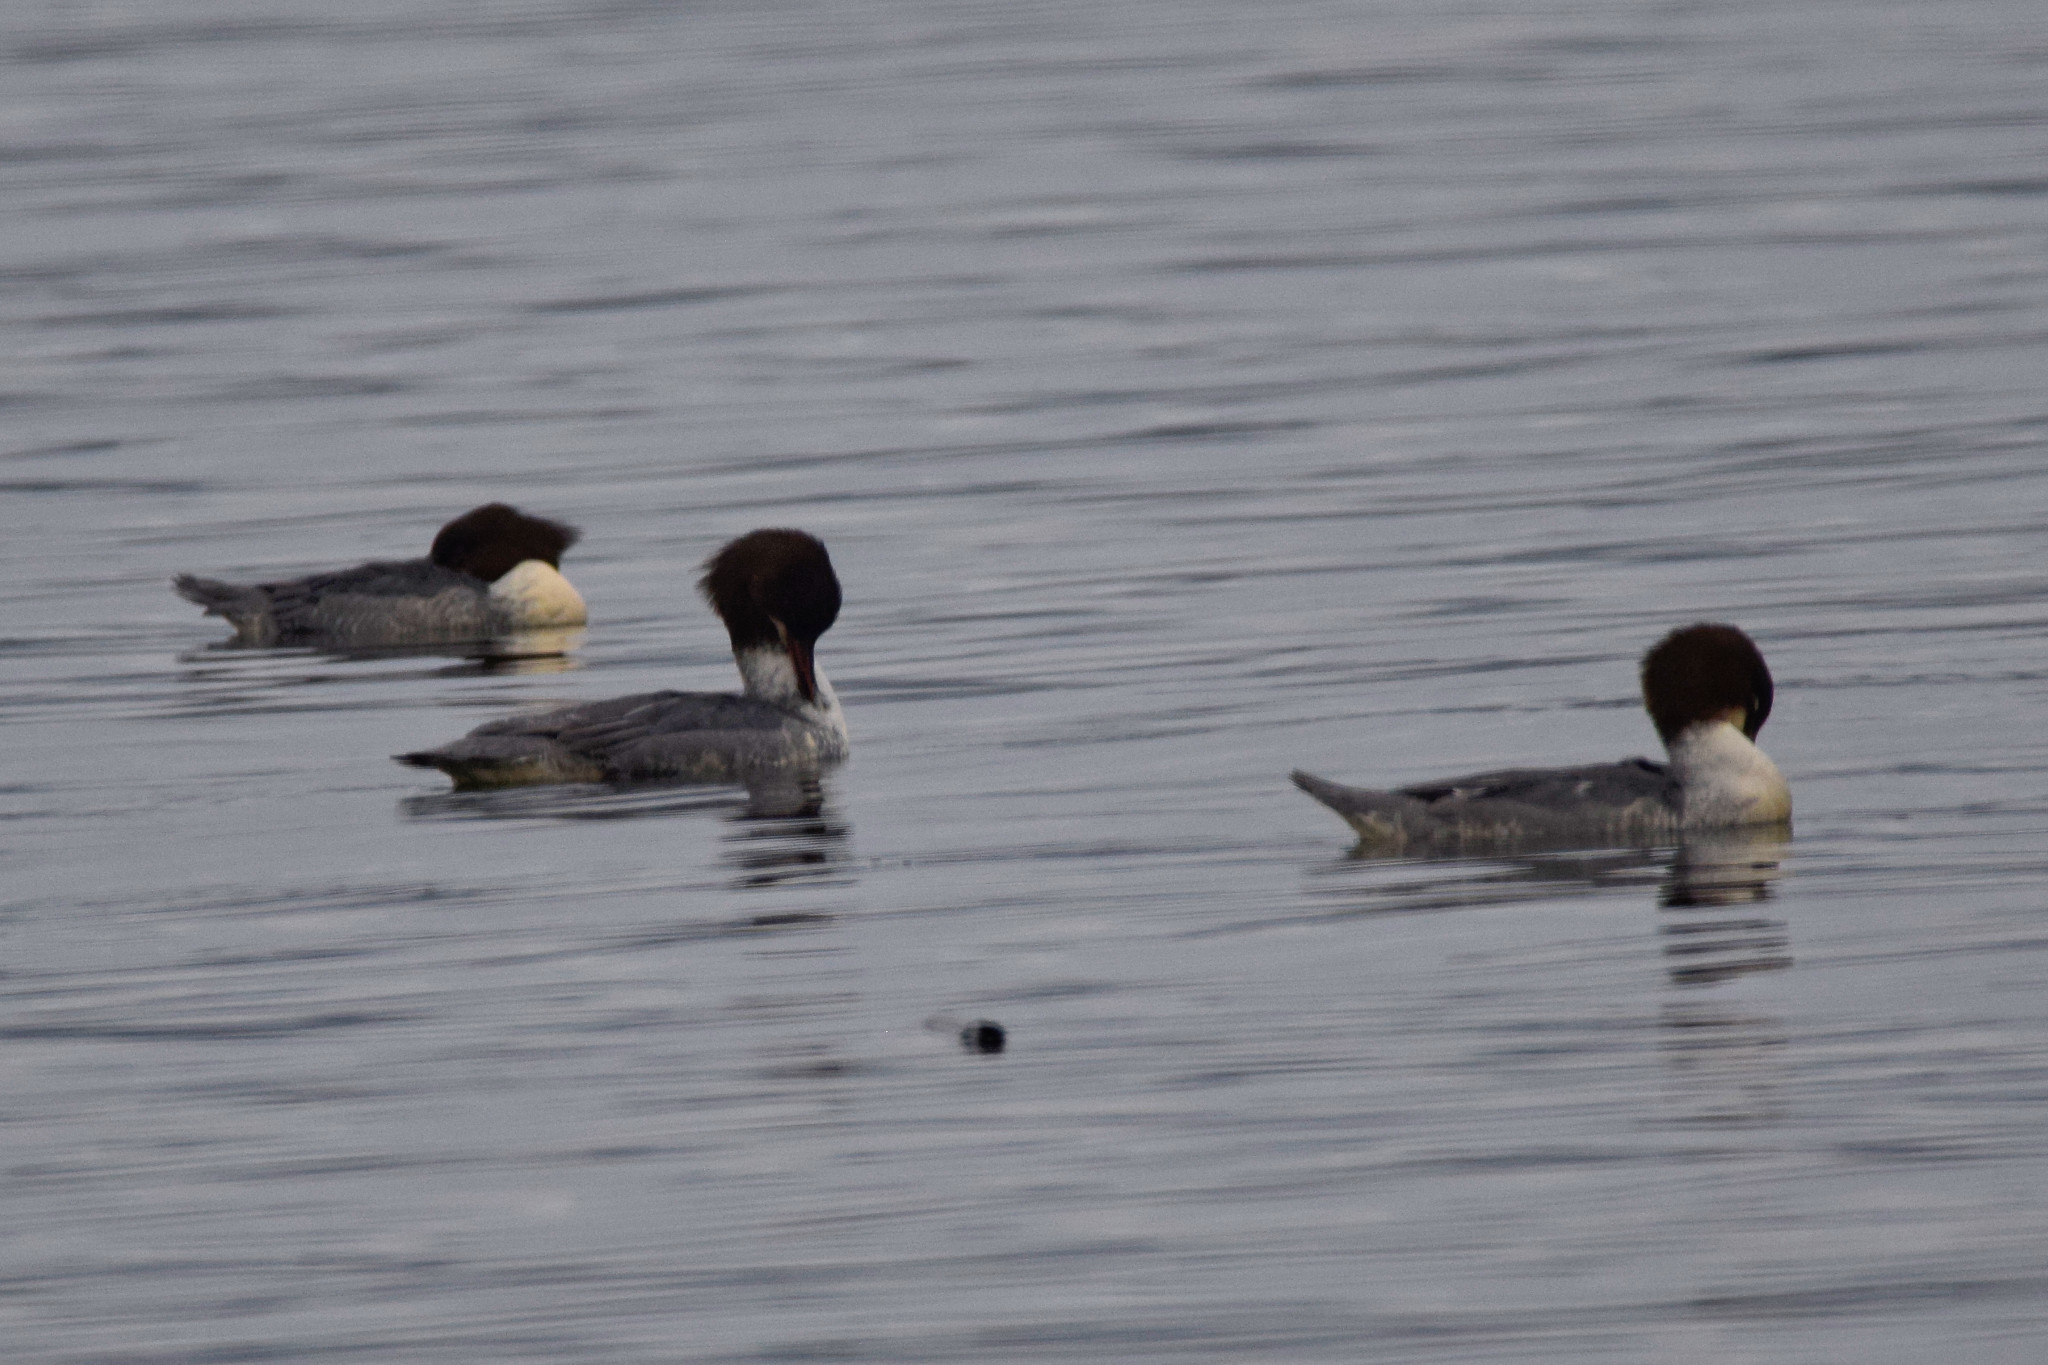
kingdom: Animalia
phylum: Chordata
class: Aves
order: Anseriformes
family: Anatidae
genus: Mergus
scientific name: Mergus merganser
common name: Common merganser
